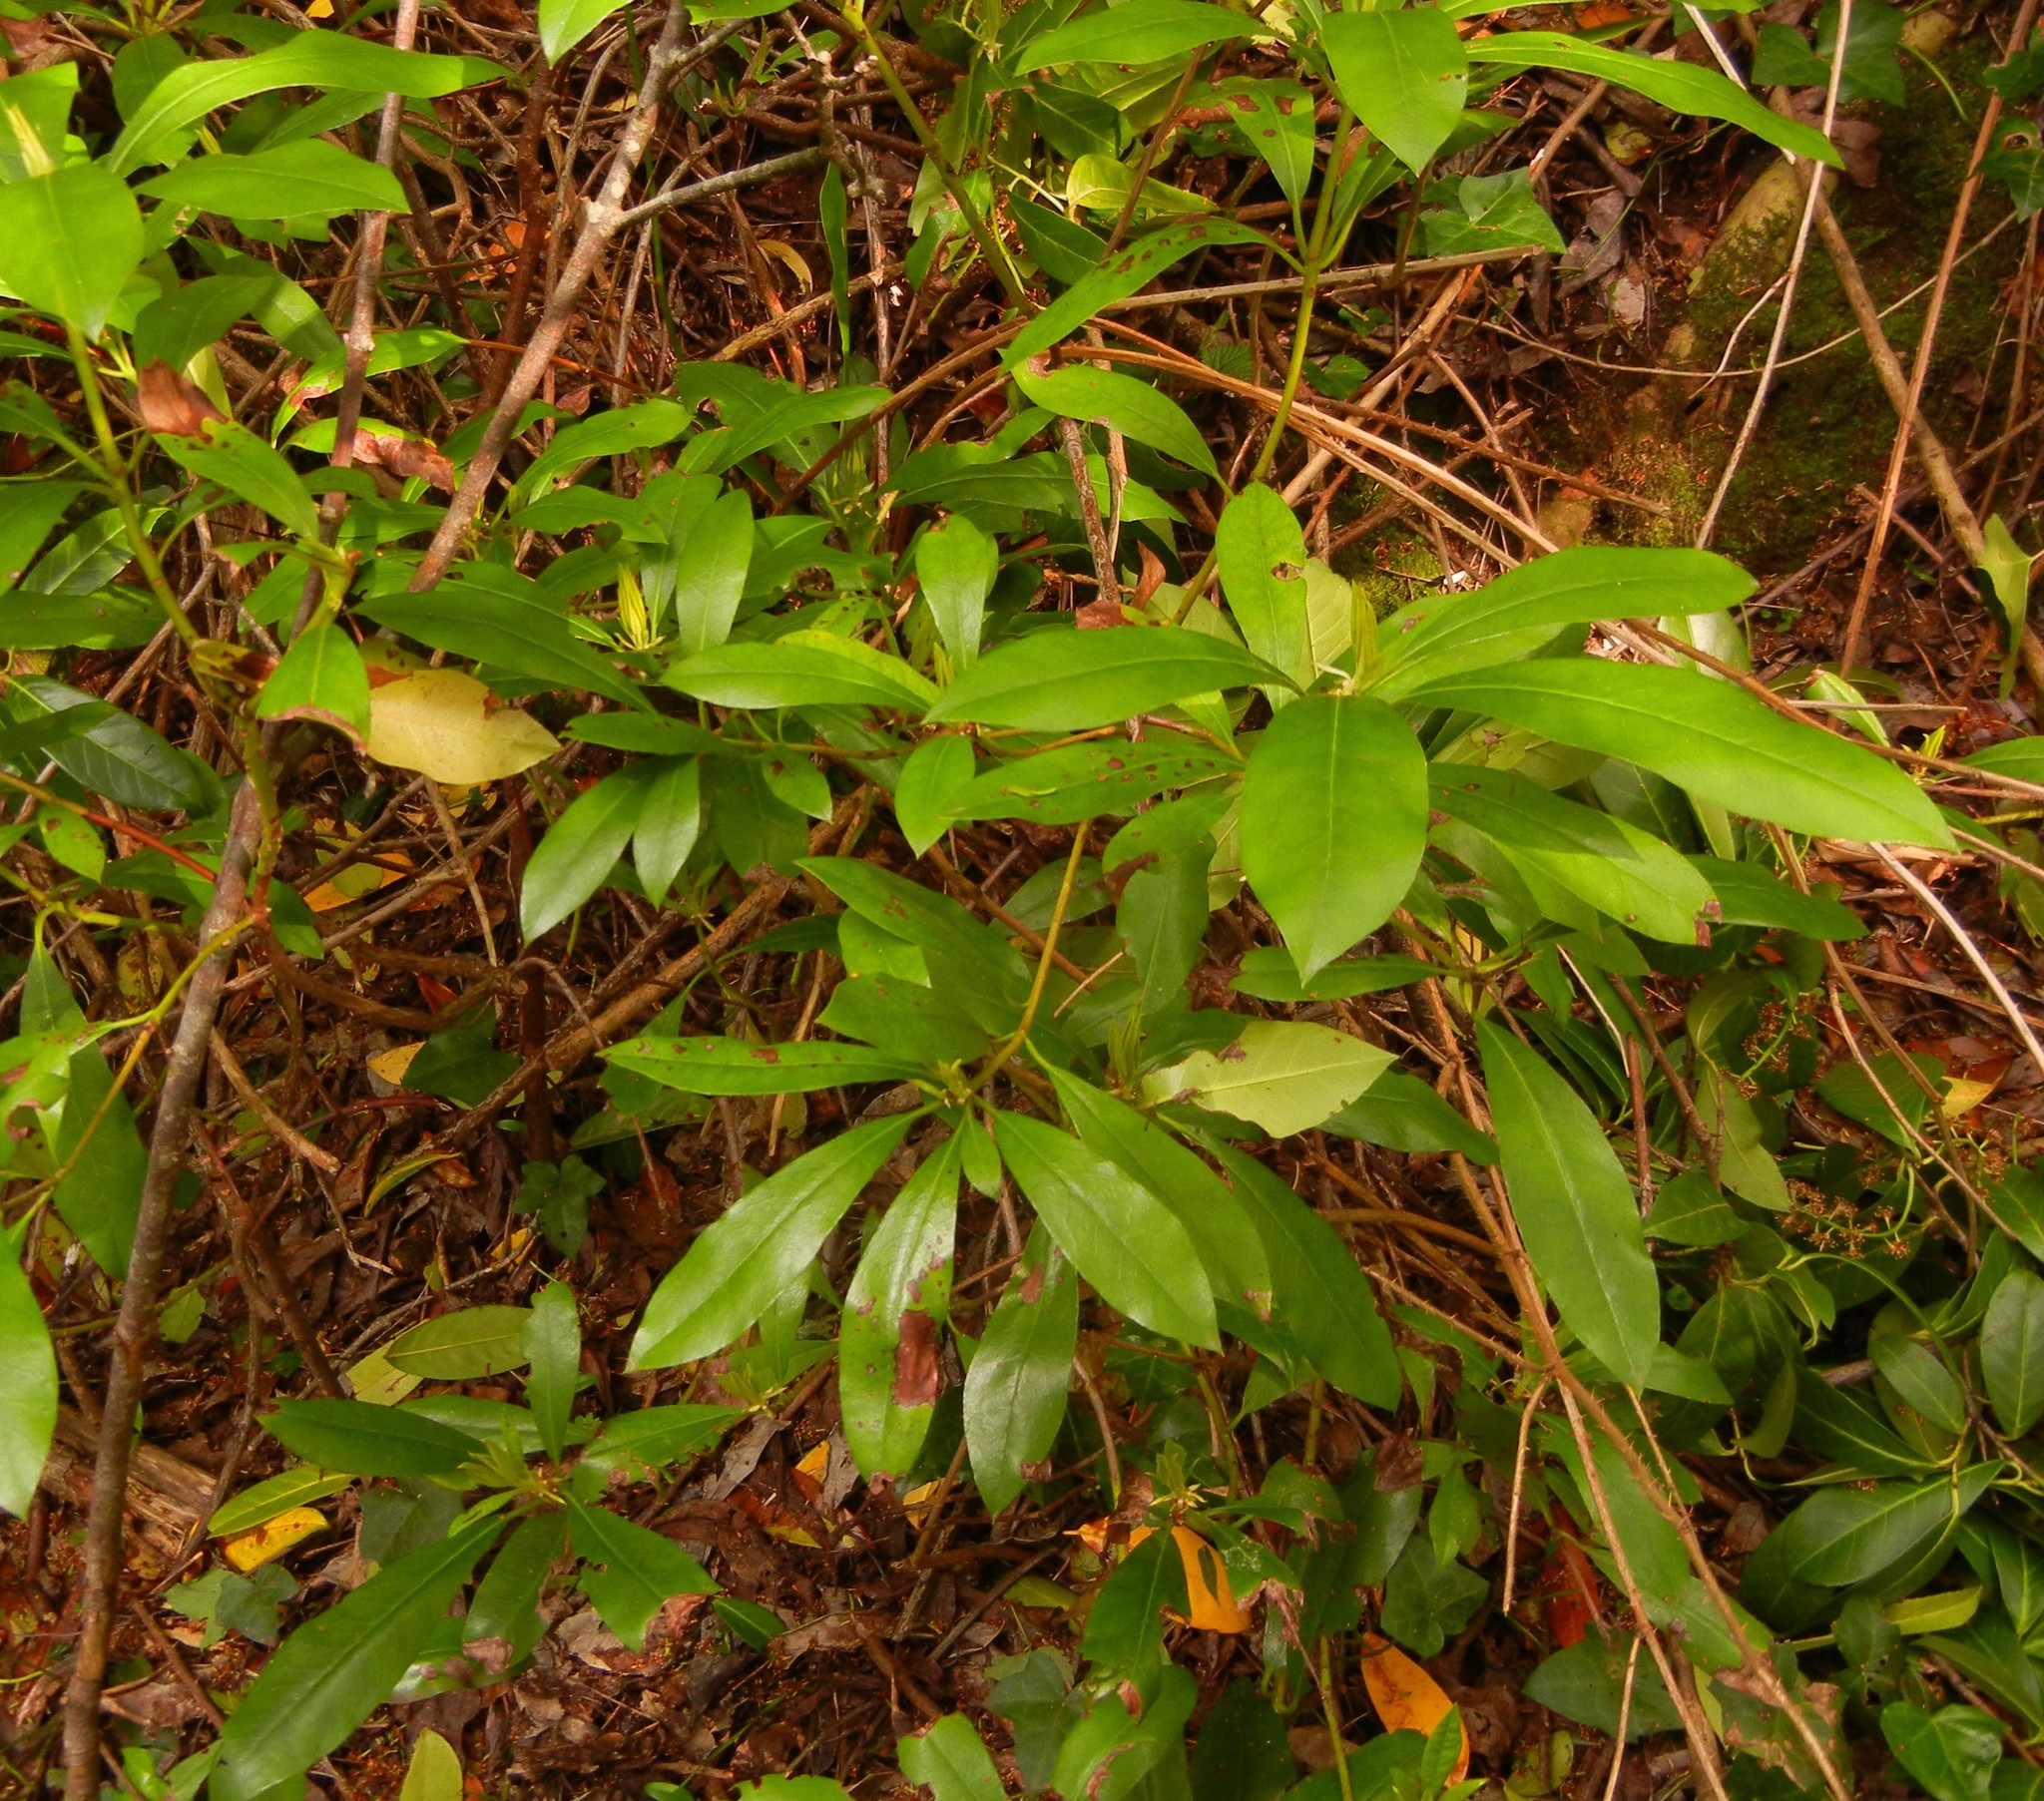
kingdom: Plantae
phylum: Tracheophyta
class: Magnoliopsida
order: Ericales
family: Ericaceae
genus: Rhododendron
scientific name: Rhododendron ponticum
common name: Rhododendron
